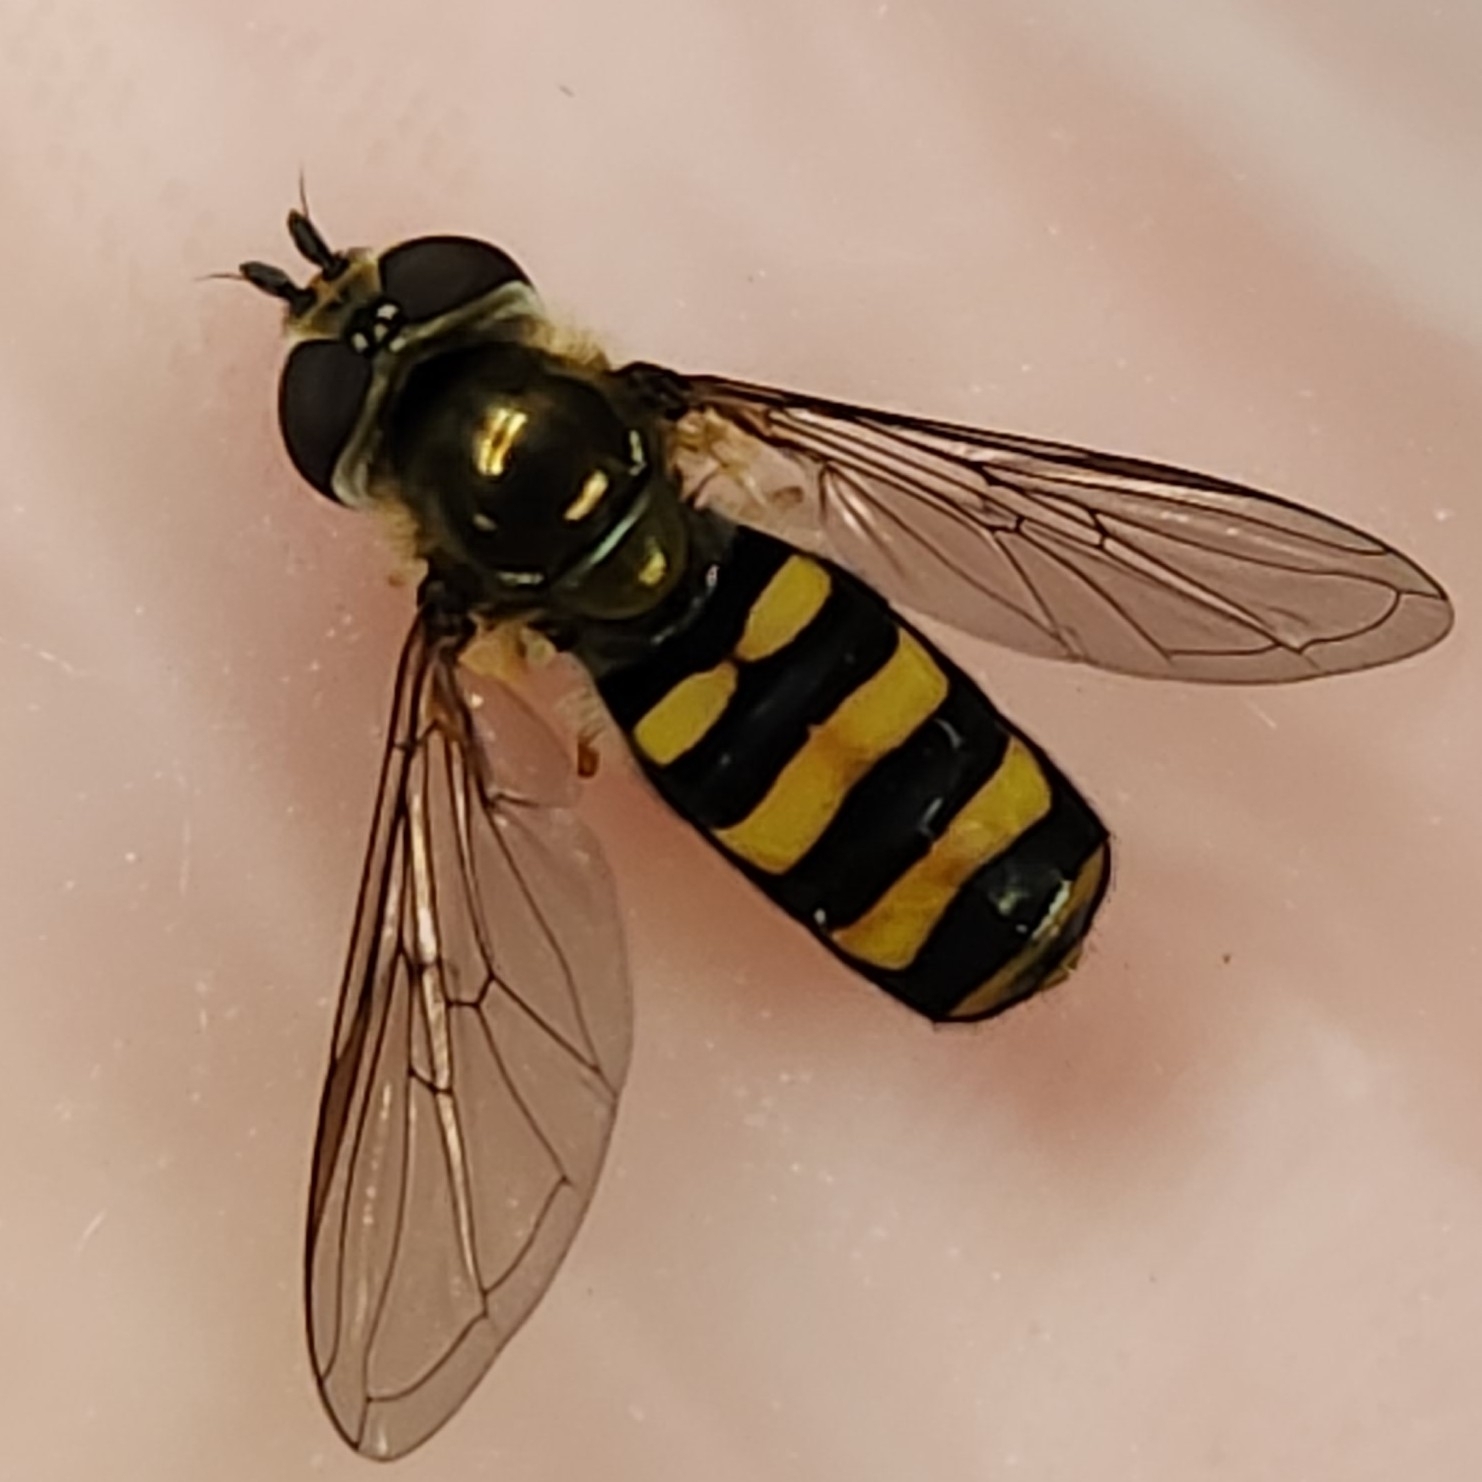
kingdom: Animalia
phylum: Arthropoda
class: Insecta
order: Diptera
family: Syrphidae
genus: Eupeodes
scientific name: Eupeodes
